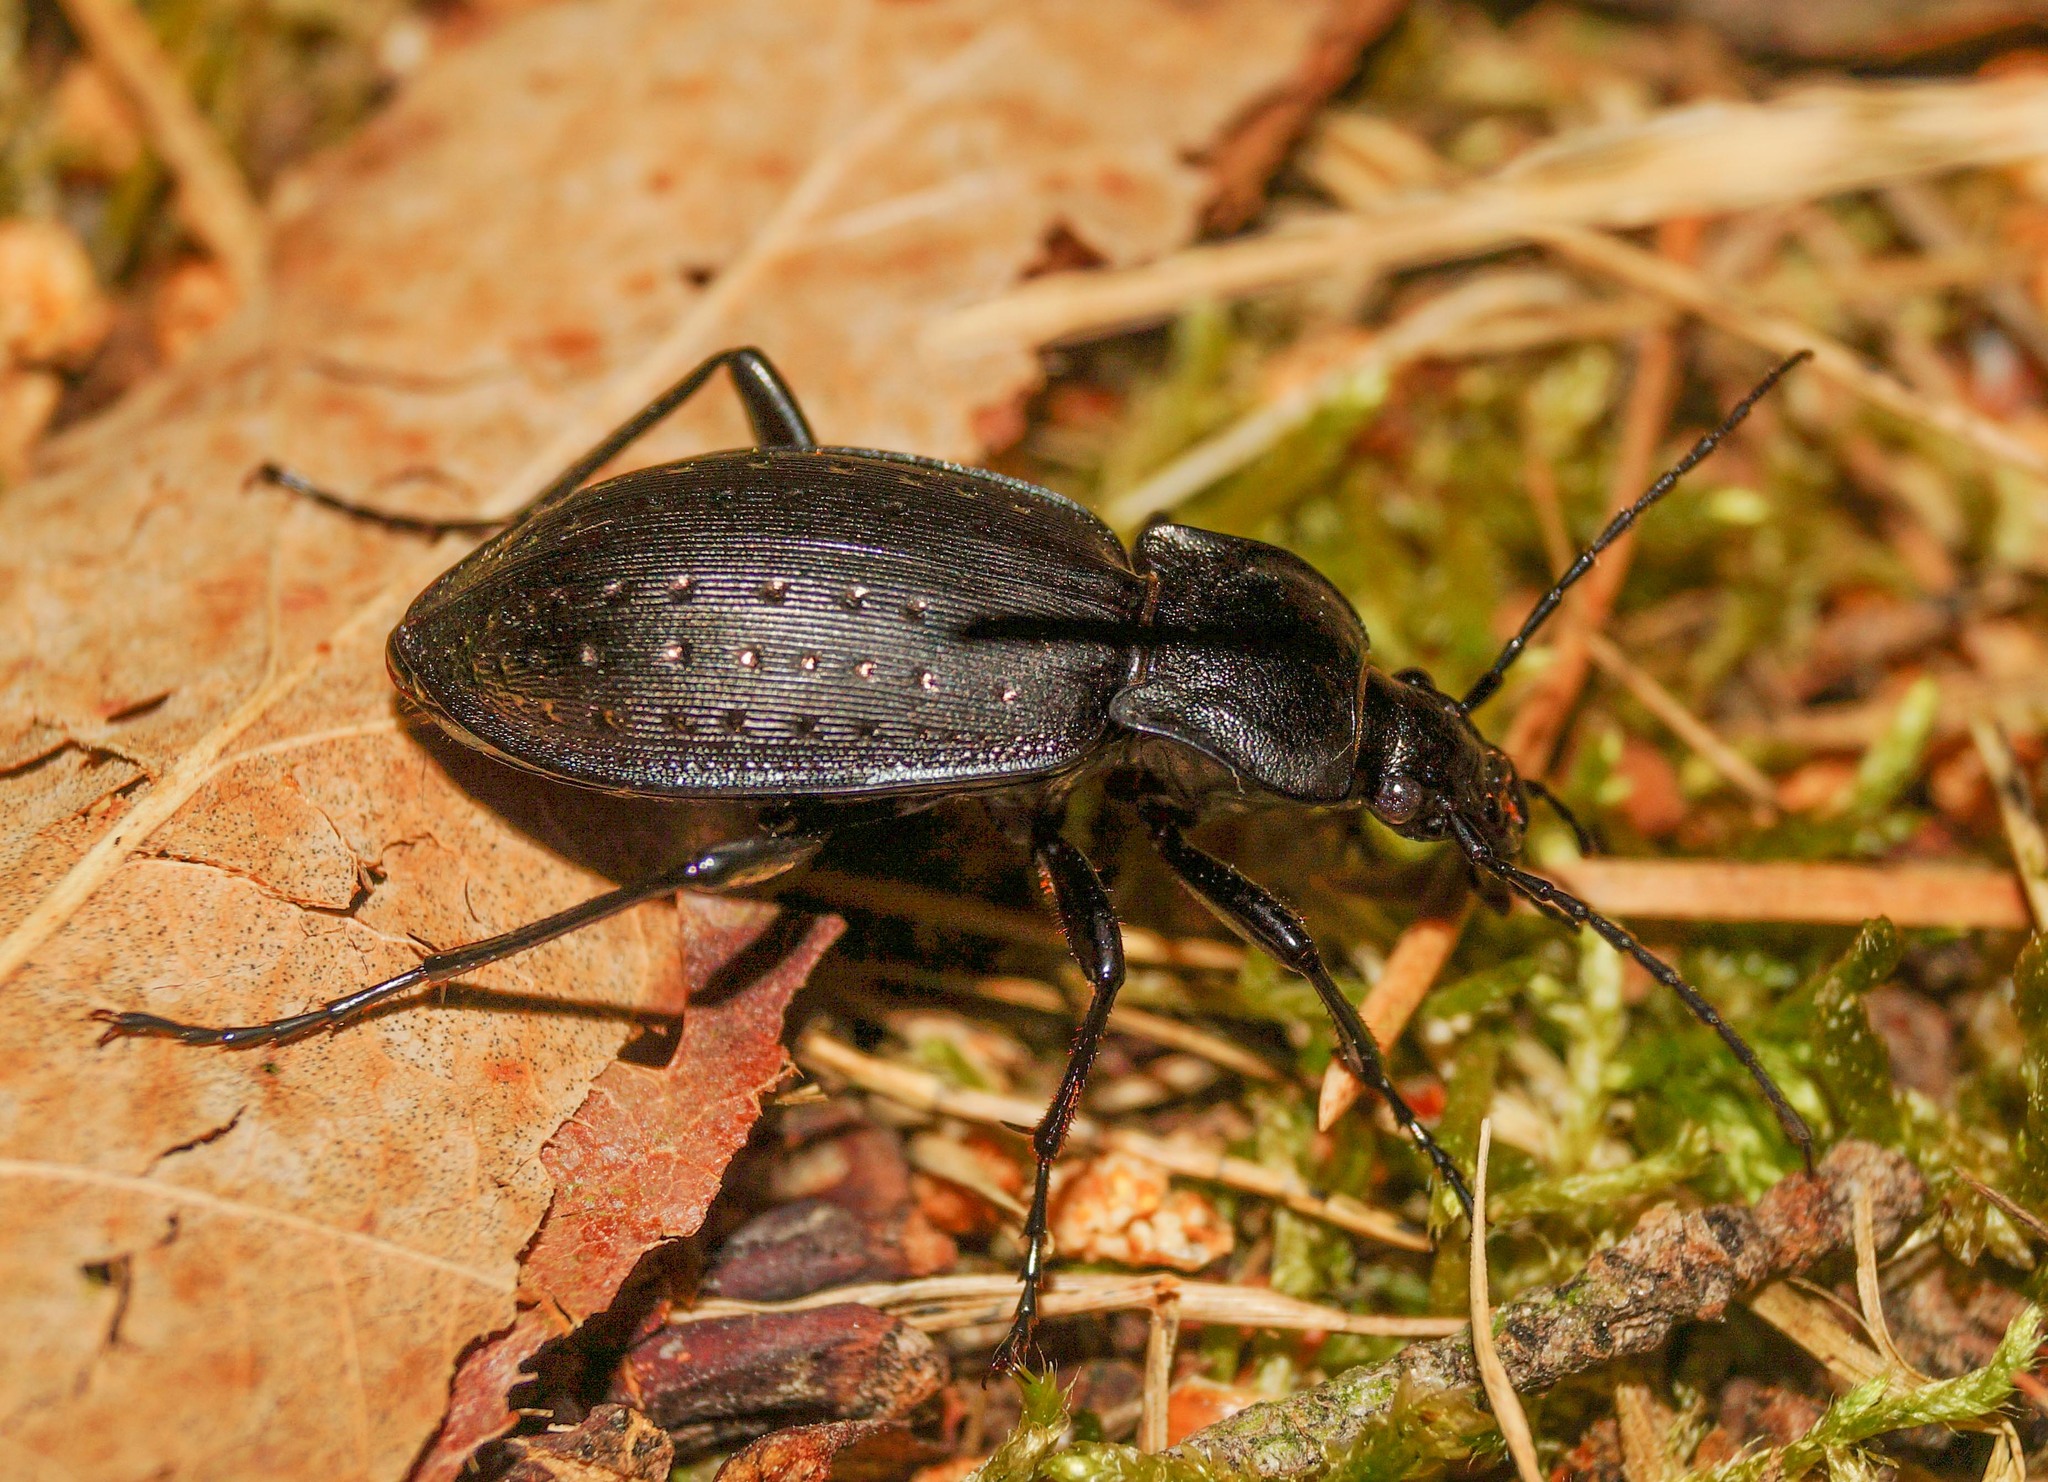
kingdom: Animalia
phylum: Arthropoda
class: Insecta
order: Coleoptera
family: Carabidae
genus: Carabus
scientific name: Carabus hortensis
